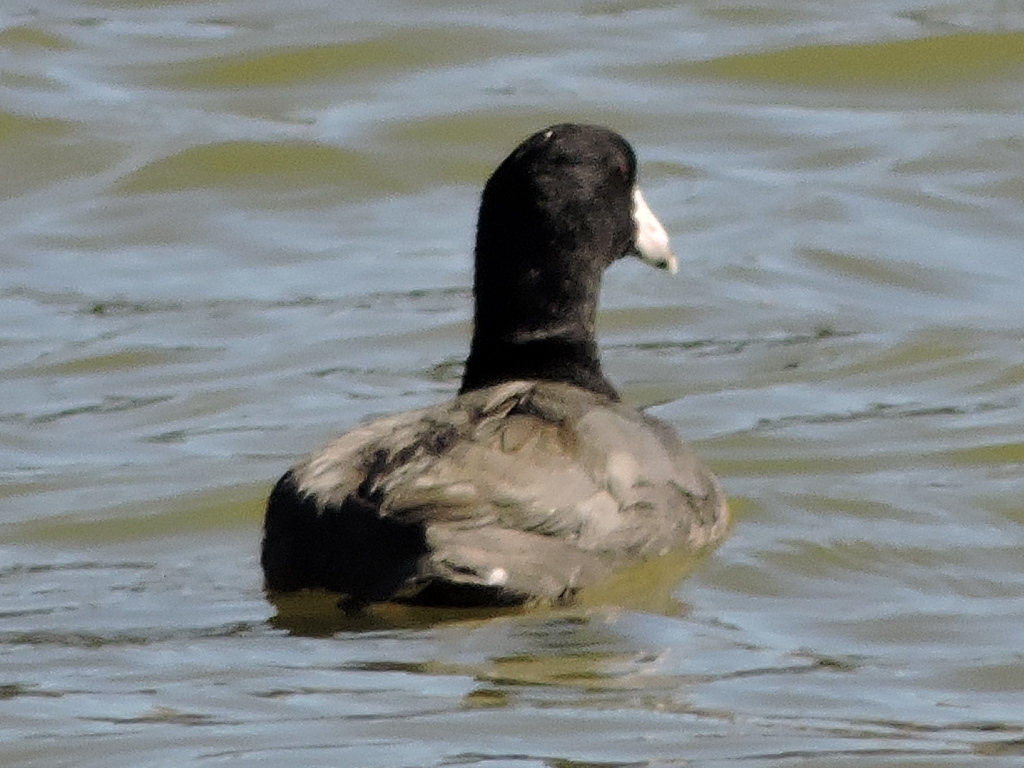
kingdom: Animalia
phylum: Chordata
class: Aves
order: Gruiformes
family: Rallidae
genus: Fulica
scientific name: Fulica americana
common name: American coot
